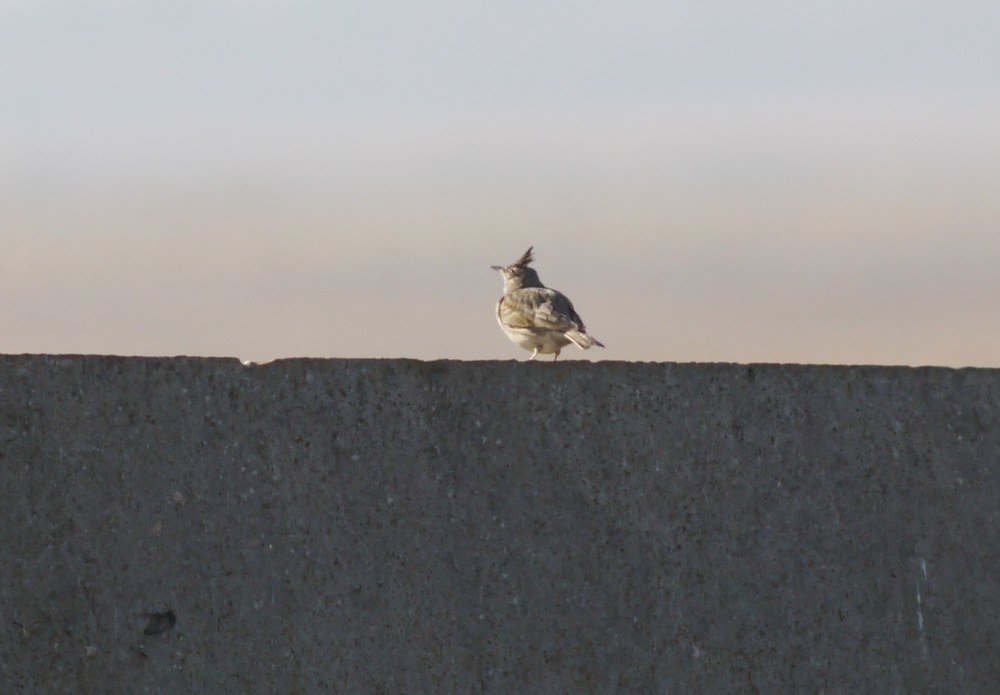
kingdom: Animalia
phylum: Chordata
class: Aves
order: Passeriformes
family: Alaudidae
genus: Galerida
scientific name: Galerida cristata
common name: Crested lark
